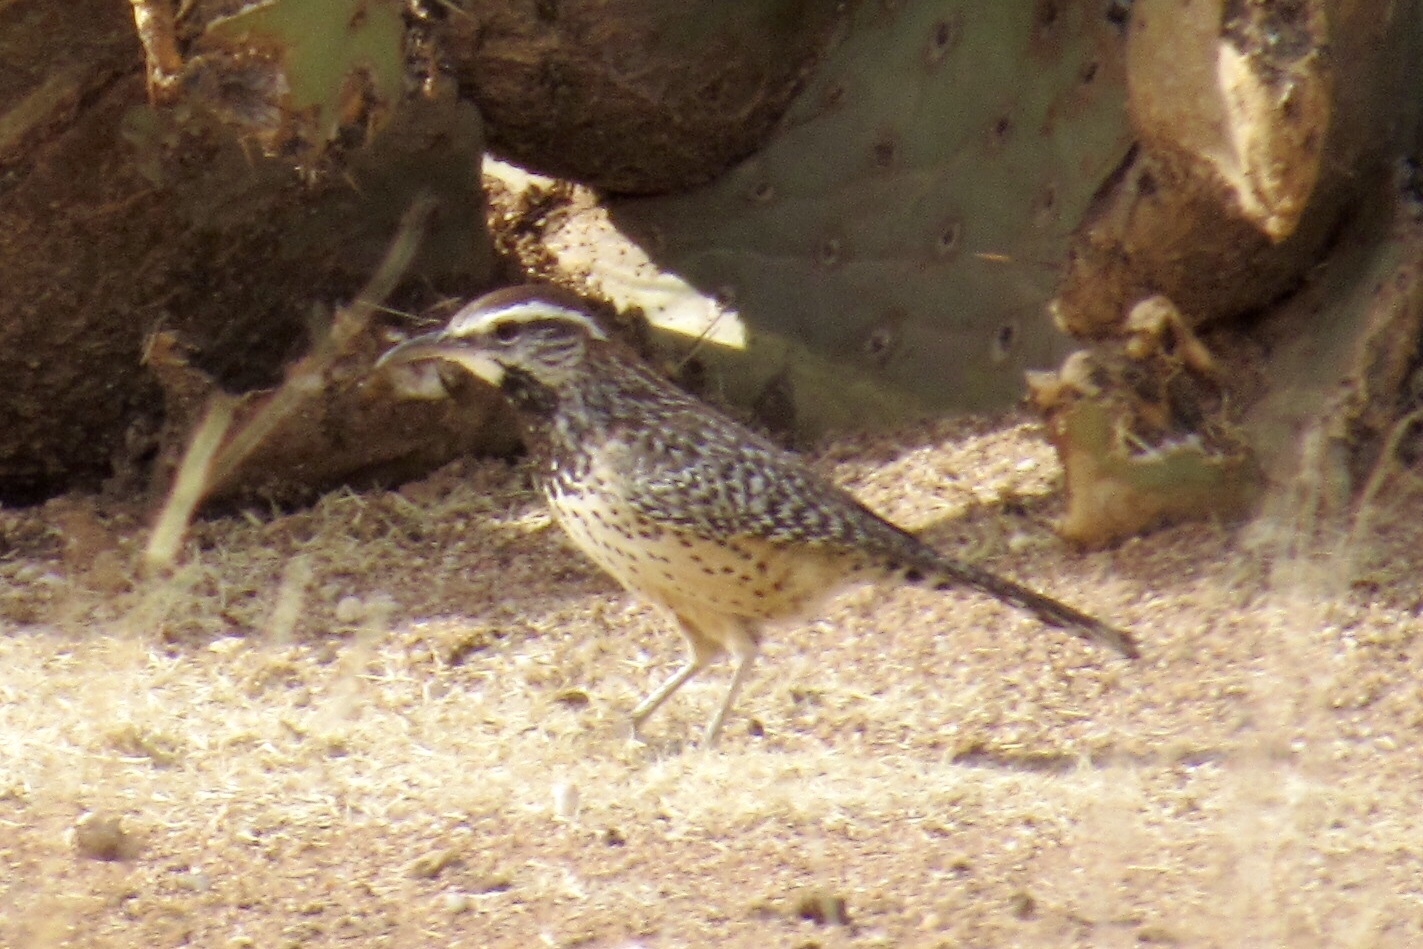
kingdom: Animalia
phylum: Chordata
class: Aves
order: Passeriformes
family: Troglodytidae
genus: Campylorhynchus
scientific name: Campylorhynchus brunneicapillus
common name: Cactus wren
